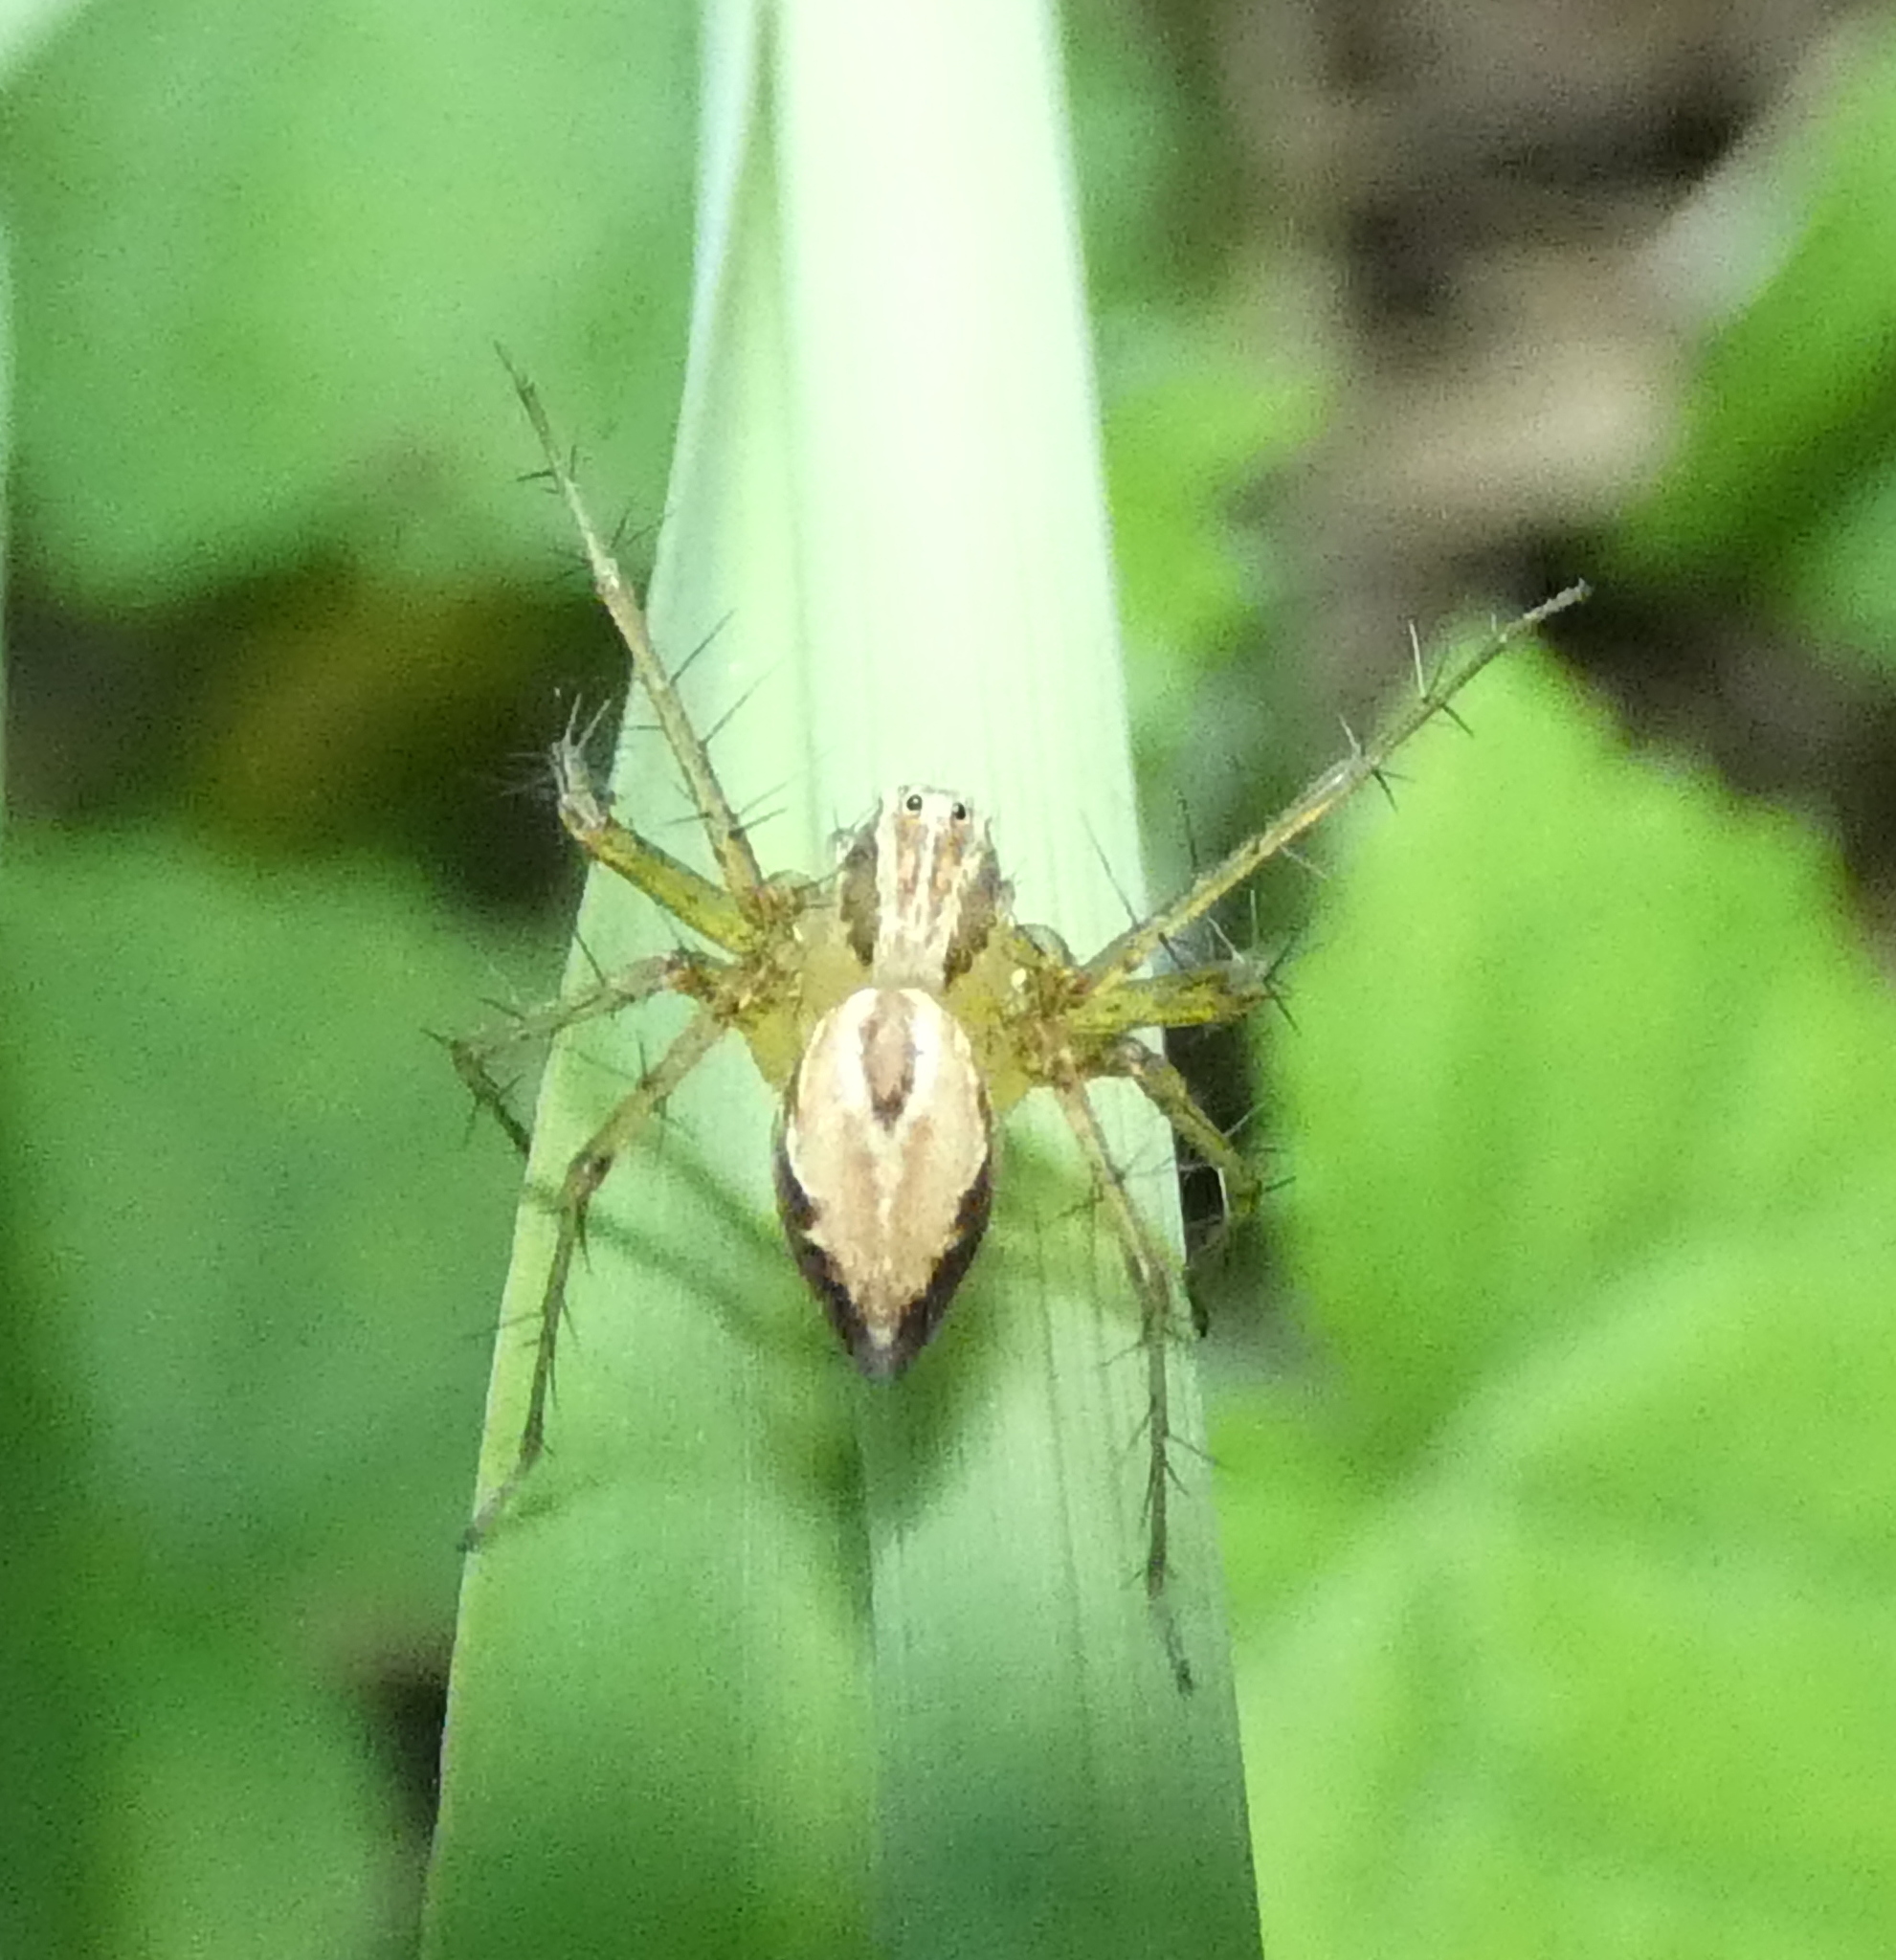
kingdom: Animalia
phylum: Arthropoda
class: Arachnida
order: Araneae
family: Oxyopidae
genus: Oxyopes
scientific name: Oxyopes salticus
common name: Lynx spiders
